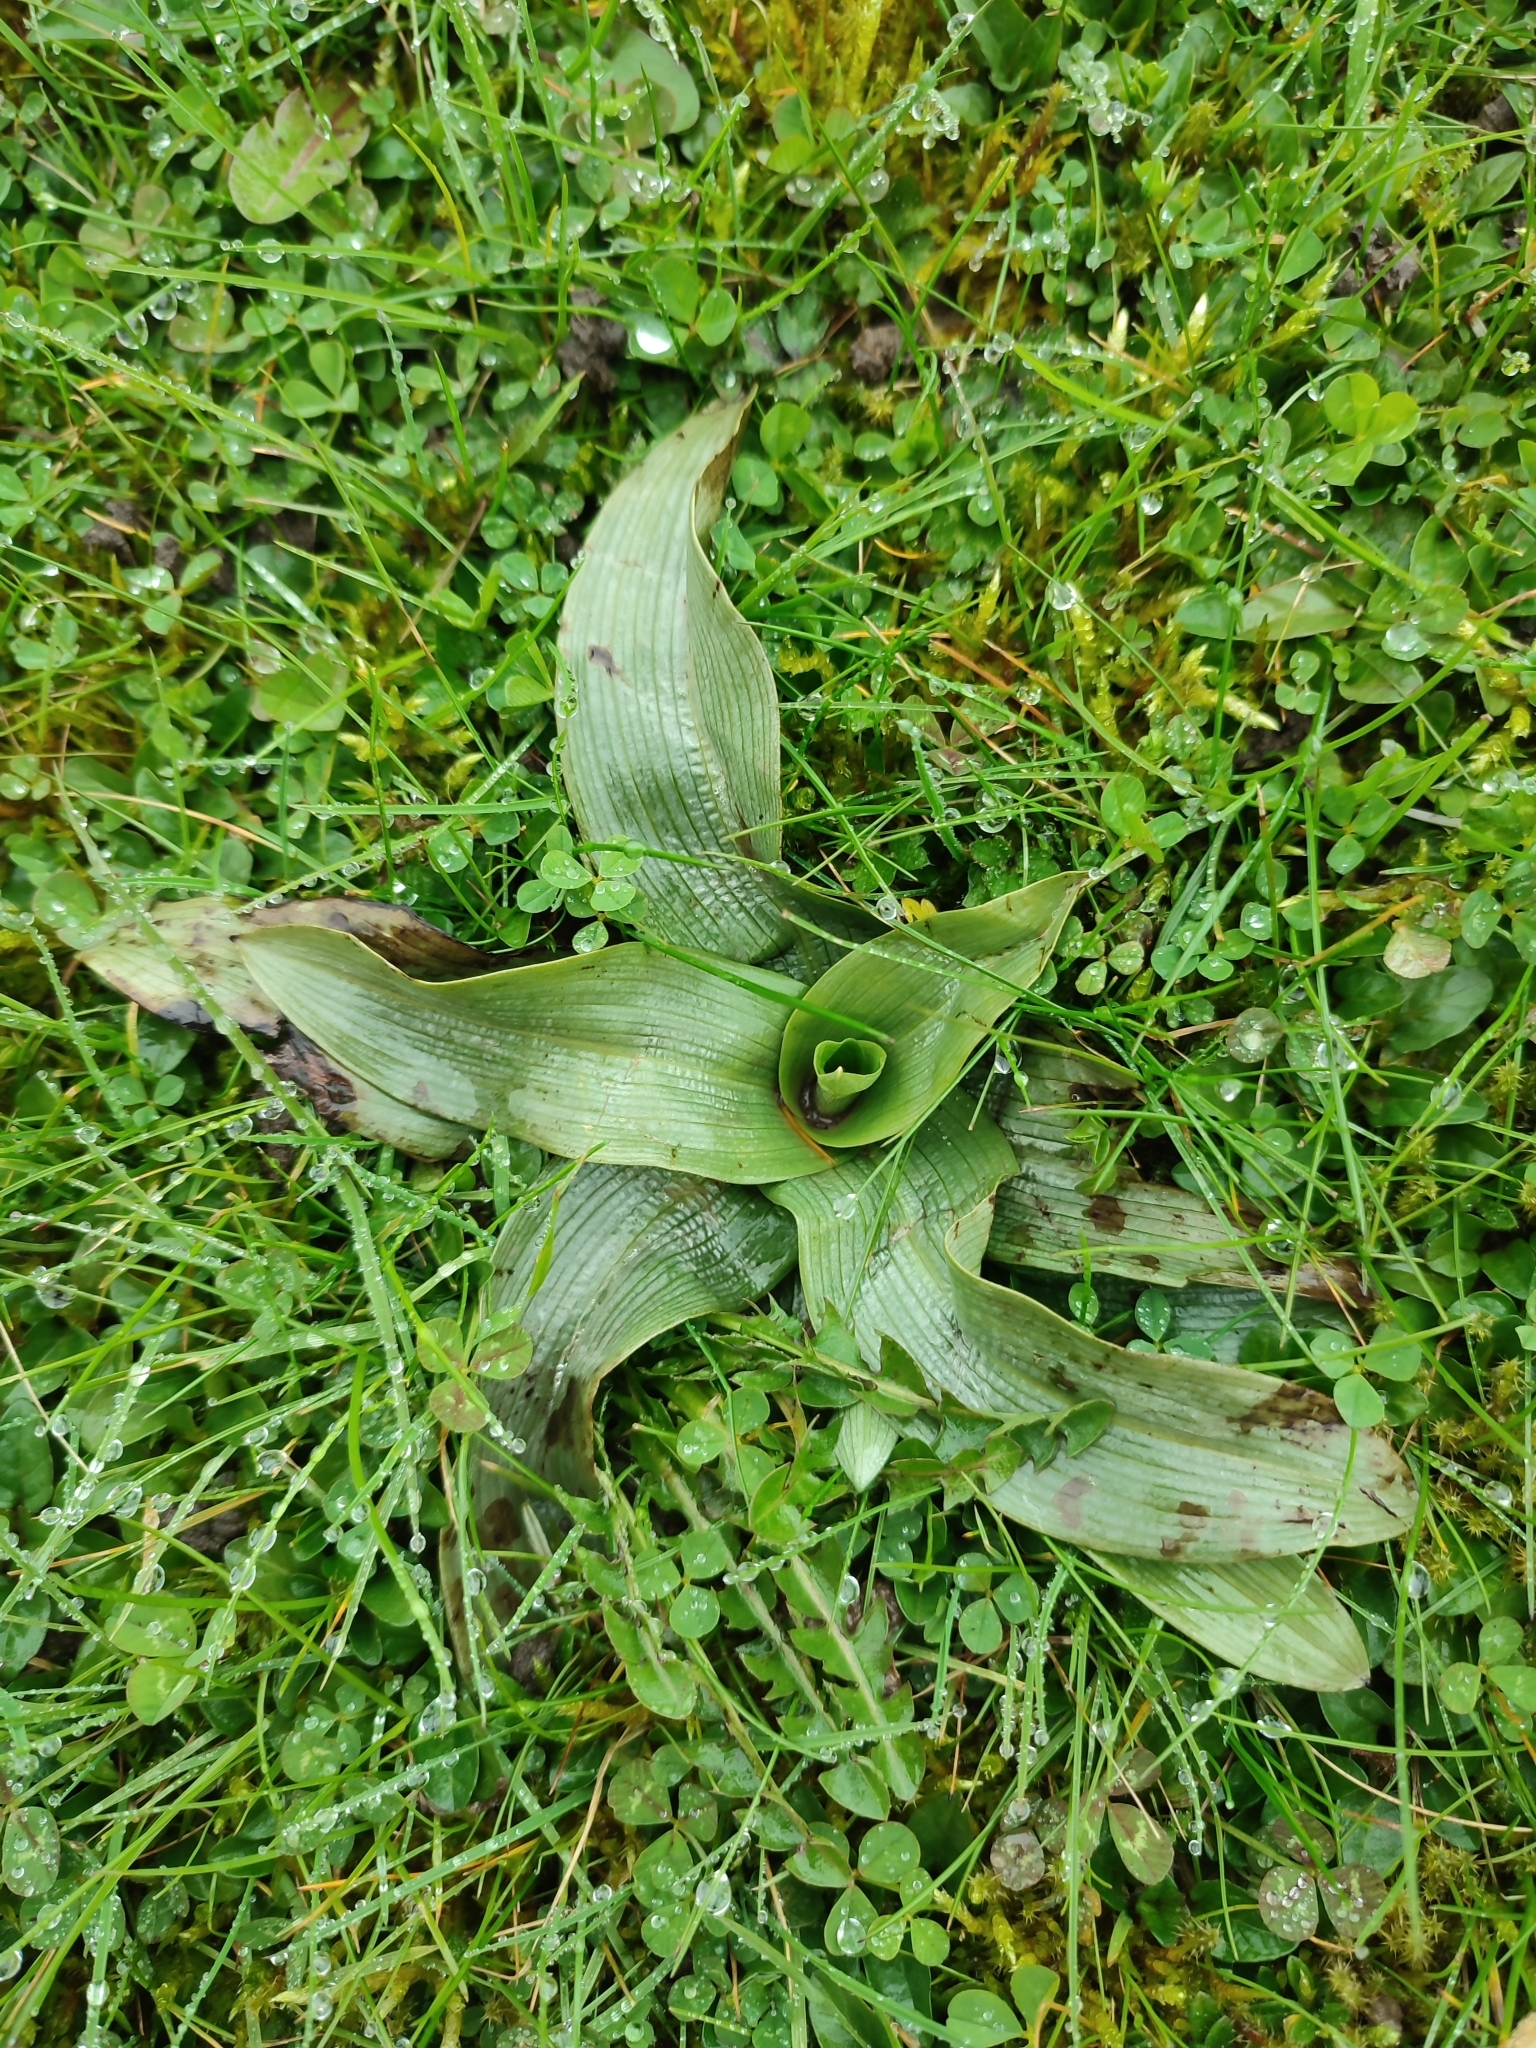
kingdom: Plantae
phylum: Tracheophyta
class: Liliopsida
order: Asparagales
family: Orchidaceae
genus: Ophrys
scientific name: Ophrys apifera
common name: Bee orchid
